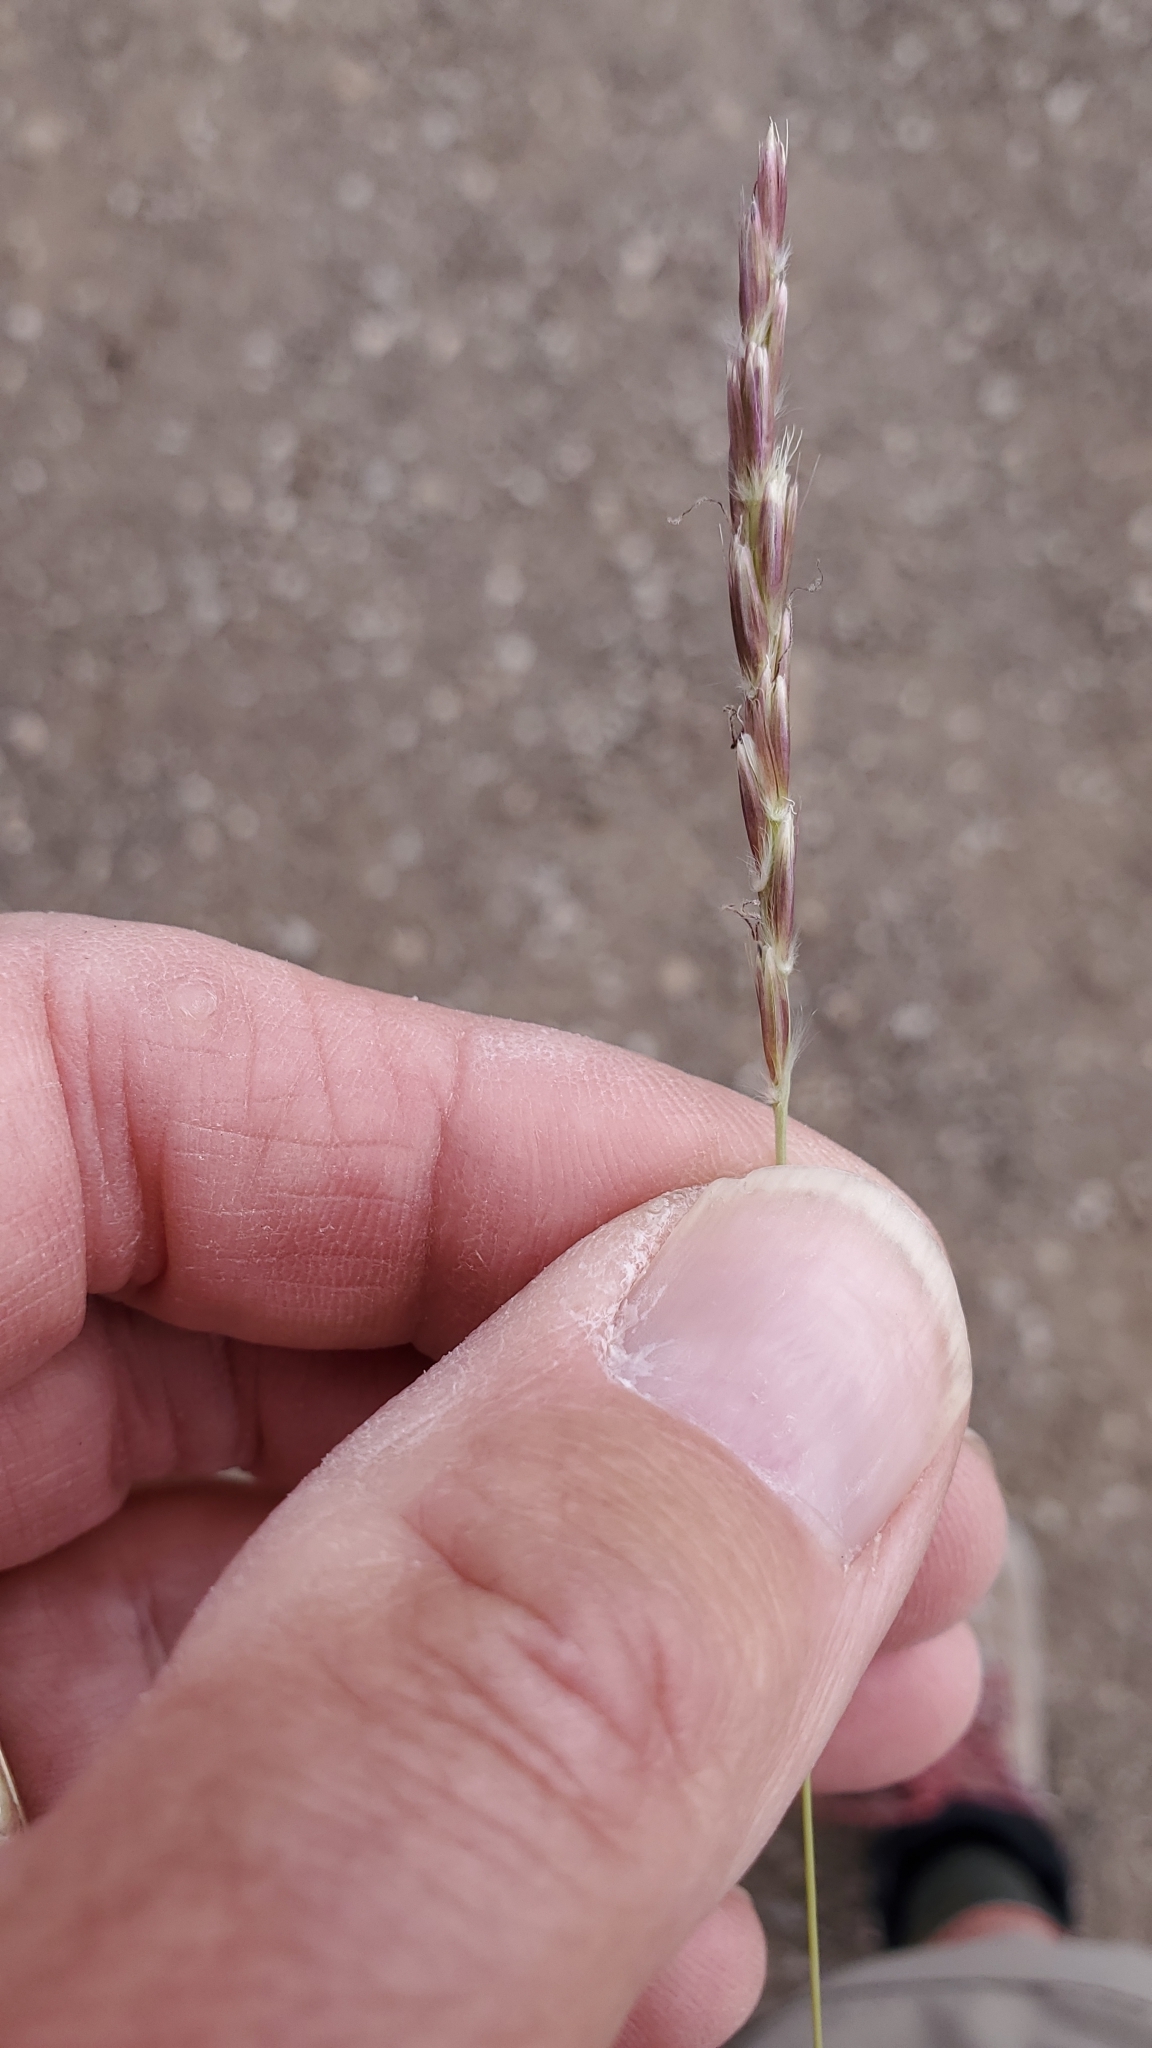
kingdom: Plantae
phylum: Tracheophyta
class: Liliopsida
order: Poales
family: Poaceae
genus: Hilaria
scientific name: Hilaria jamesii
